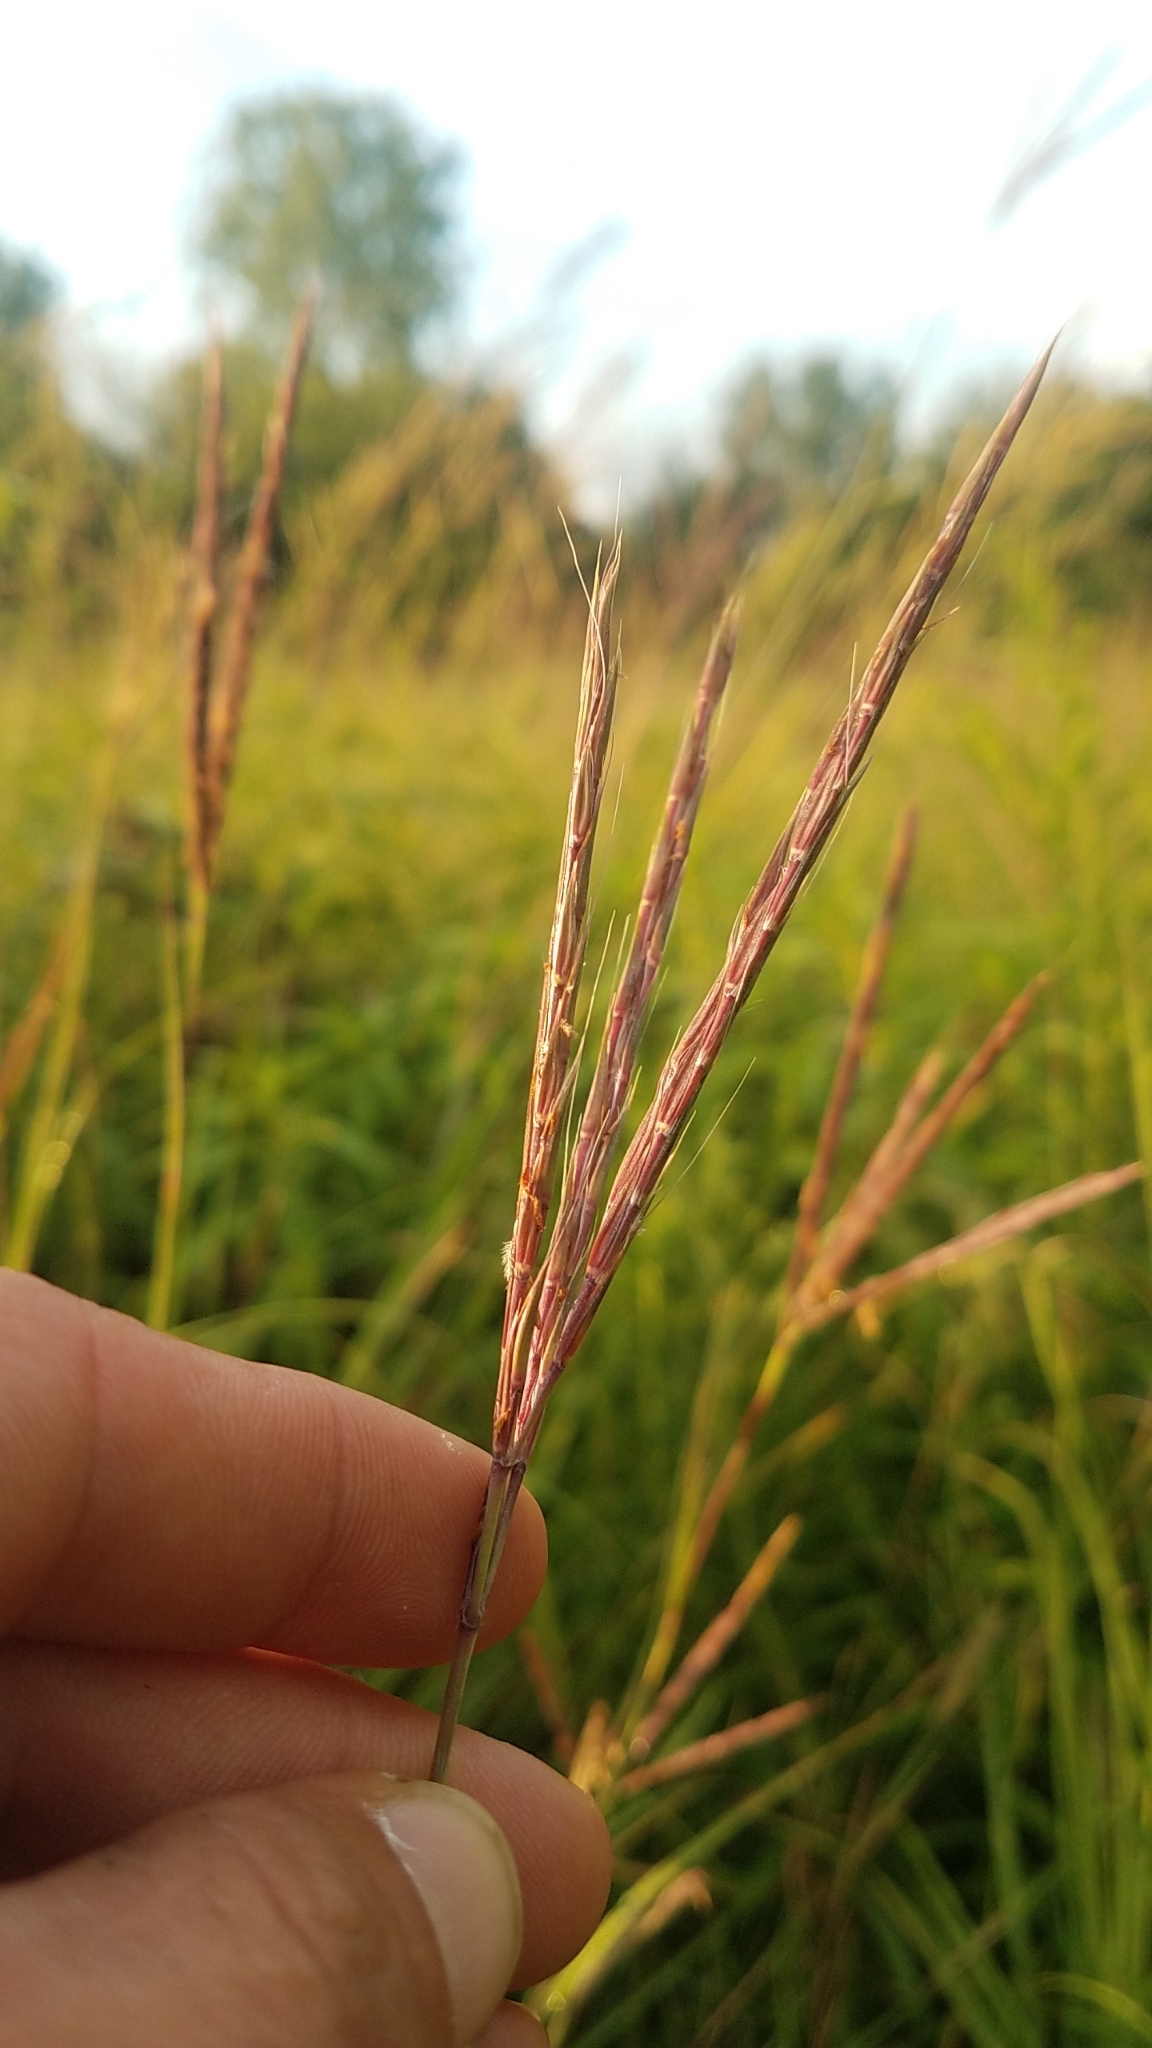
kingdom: Plantae
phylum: Tracheophyta
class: Liliopsida
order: Poales
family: Poaceae
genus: Andropogon
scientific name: Andropogon gerardi
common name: Big bluestem
